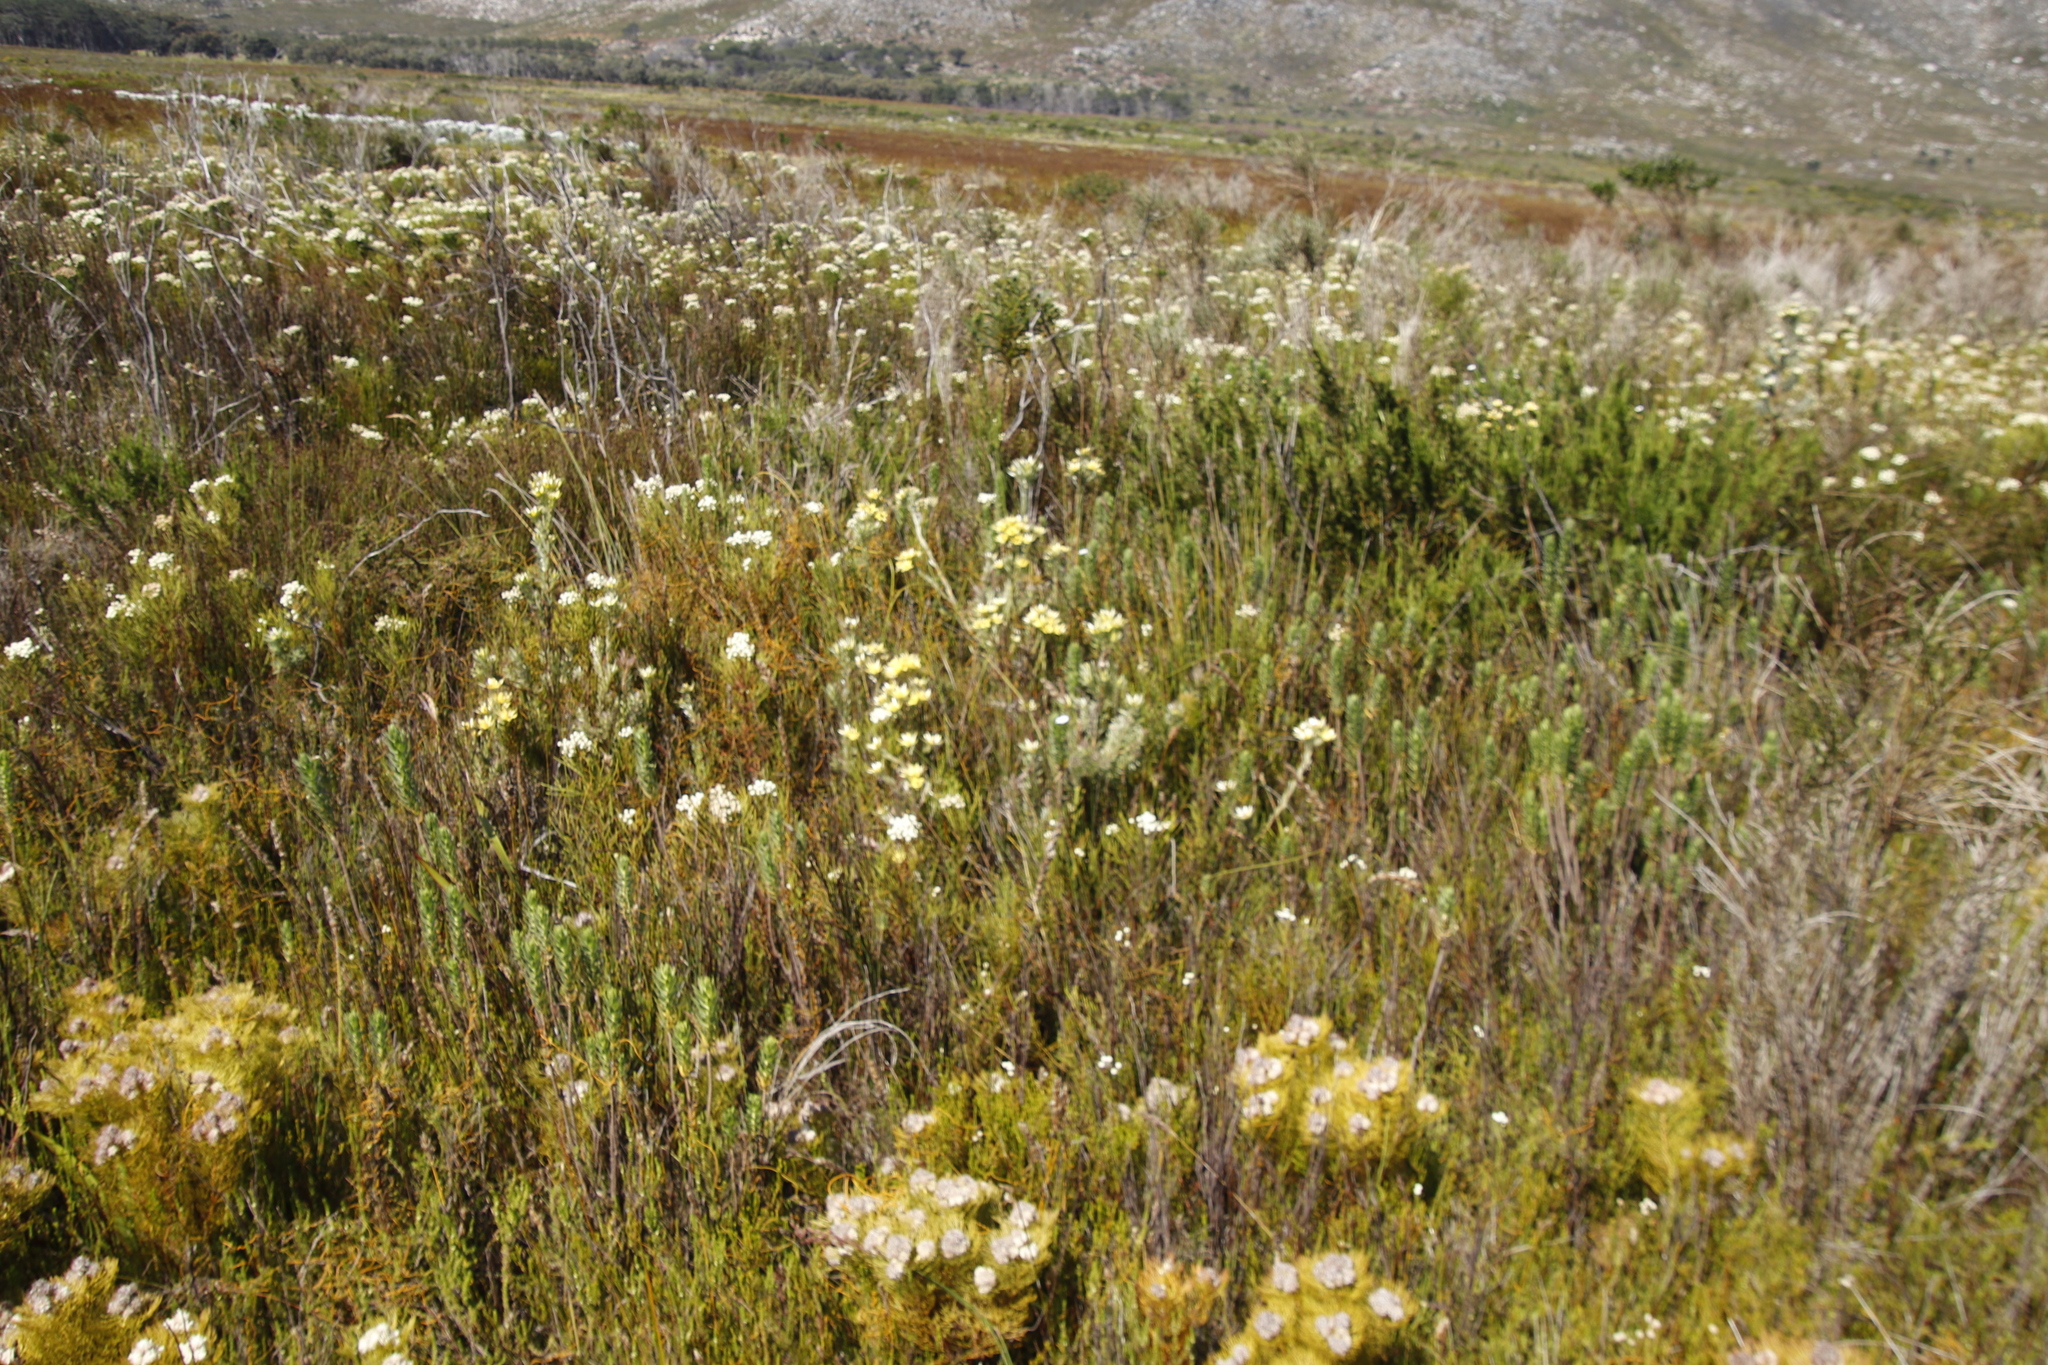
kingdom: Plantae
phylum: Tracheophyta
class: Magnoliopsida
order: Bruniales
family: Bruniaceae
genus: Berzelia
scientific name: Berzelia lanuginosa
